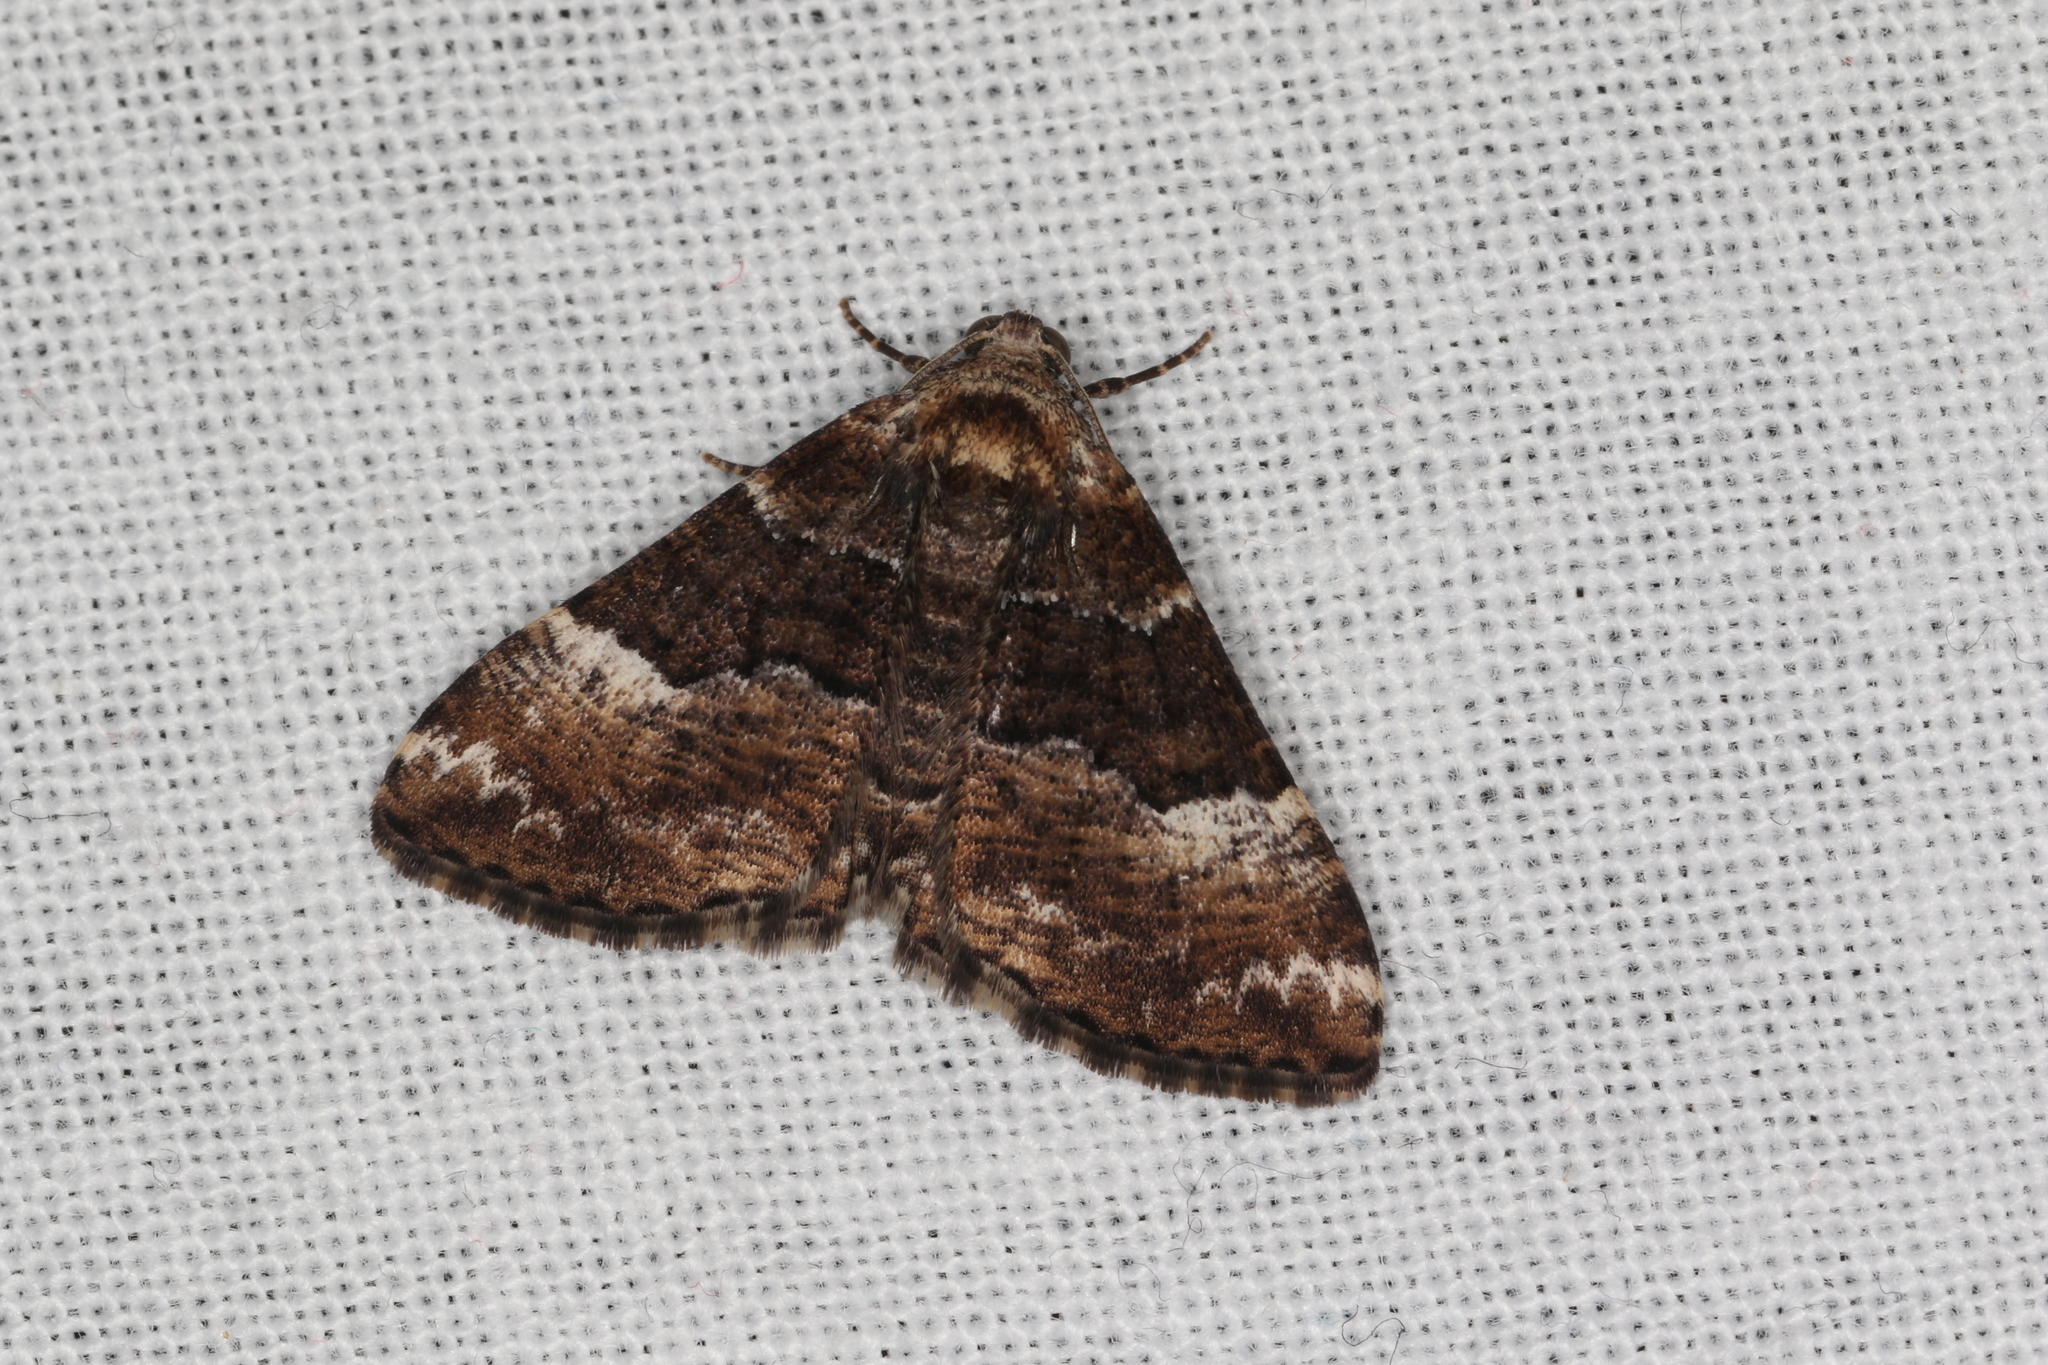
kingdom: Animalia
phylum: Arthropoda
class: Insecta
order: Lepidoptera
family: Geometridae
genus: Aporoctena
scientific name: Aporoctena scierodes
